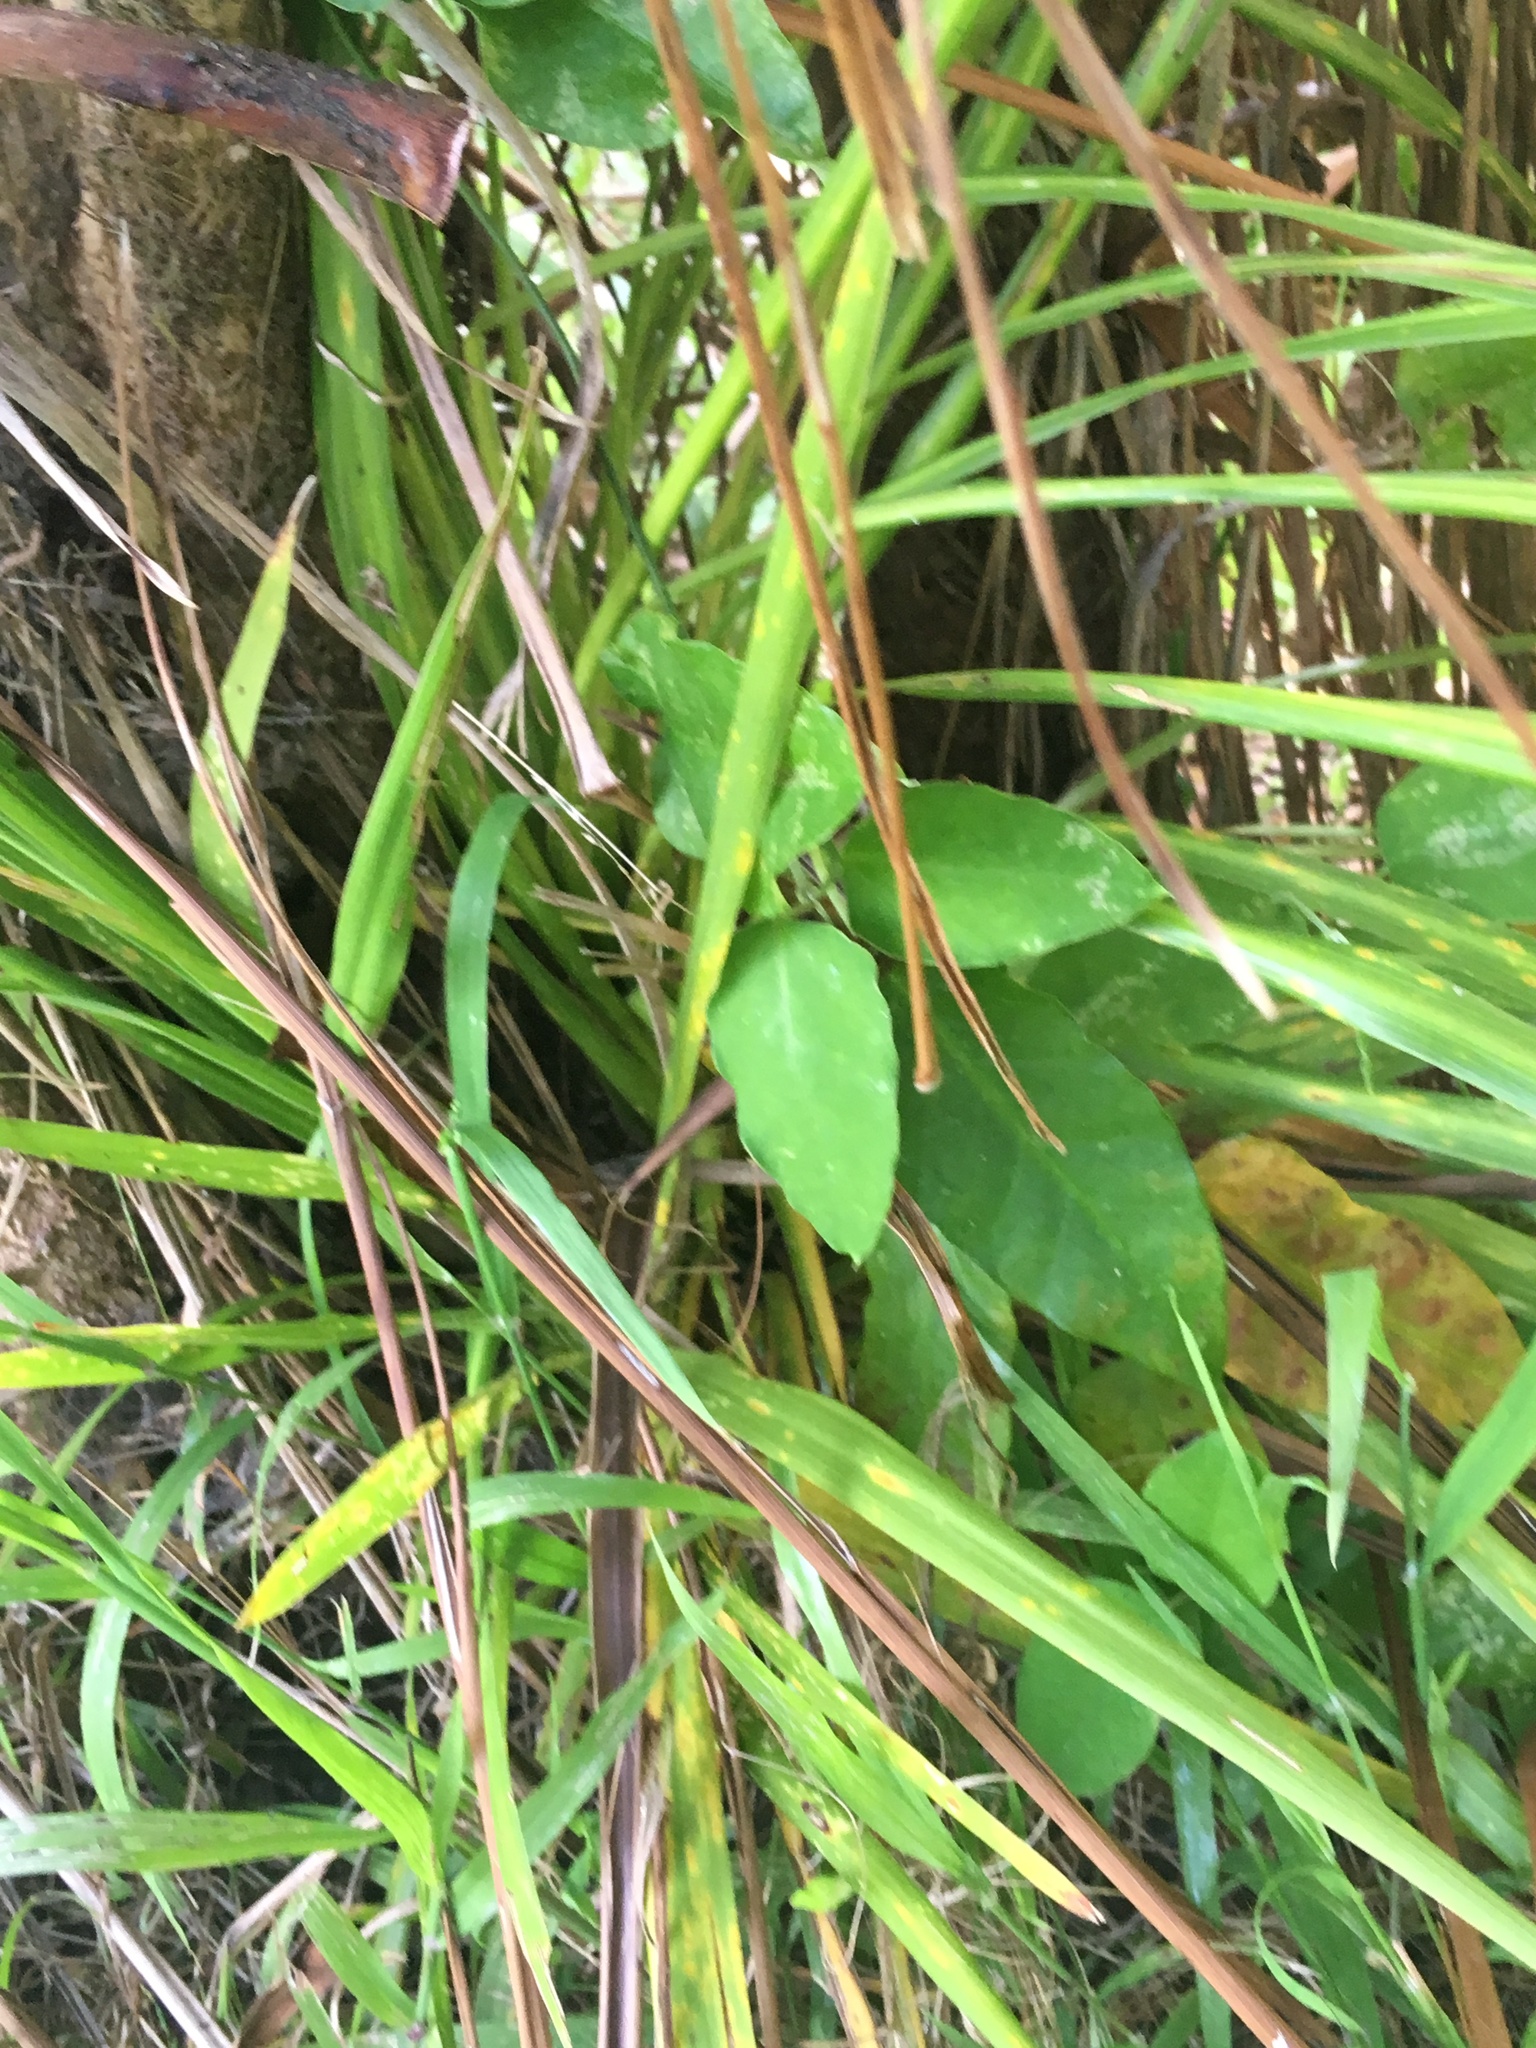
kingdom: Plantae
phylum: Tracheophyta
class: Liliopsida
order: Asparagales
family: Asparagaceae
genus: Cordyline
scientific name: Cordyline australis
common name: Cabbage-palm
